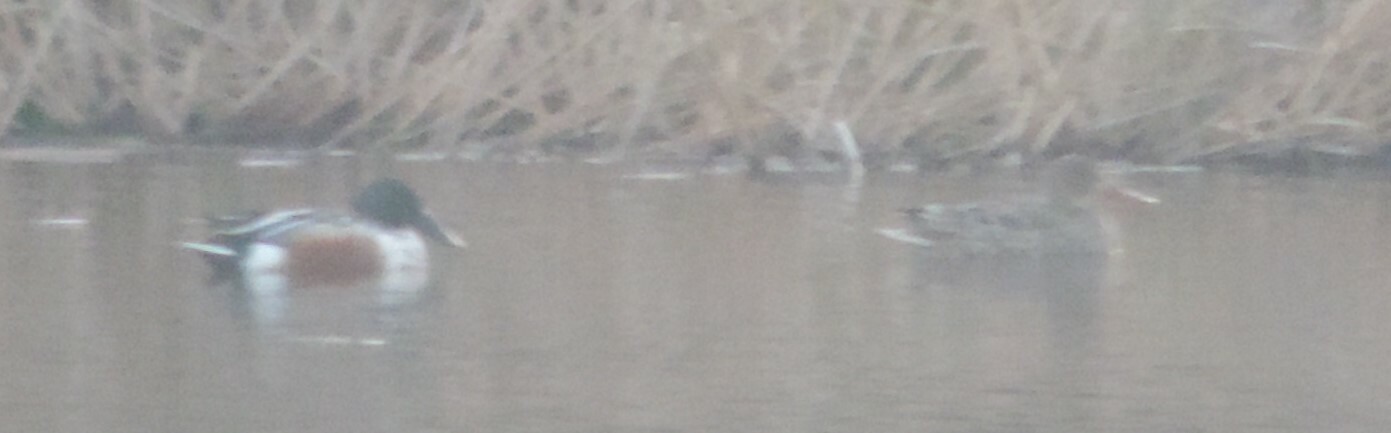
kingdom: Animalia
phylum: Chordata
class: Aves
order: Anseriformes
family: Anatidae
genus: Spatula
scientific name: Spatula clypeata
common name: Northern shoveler
